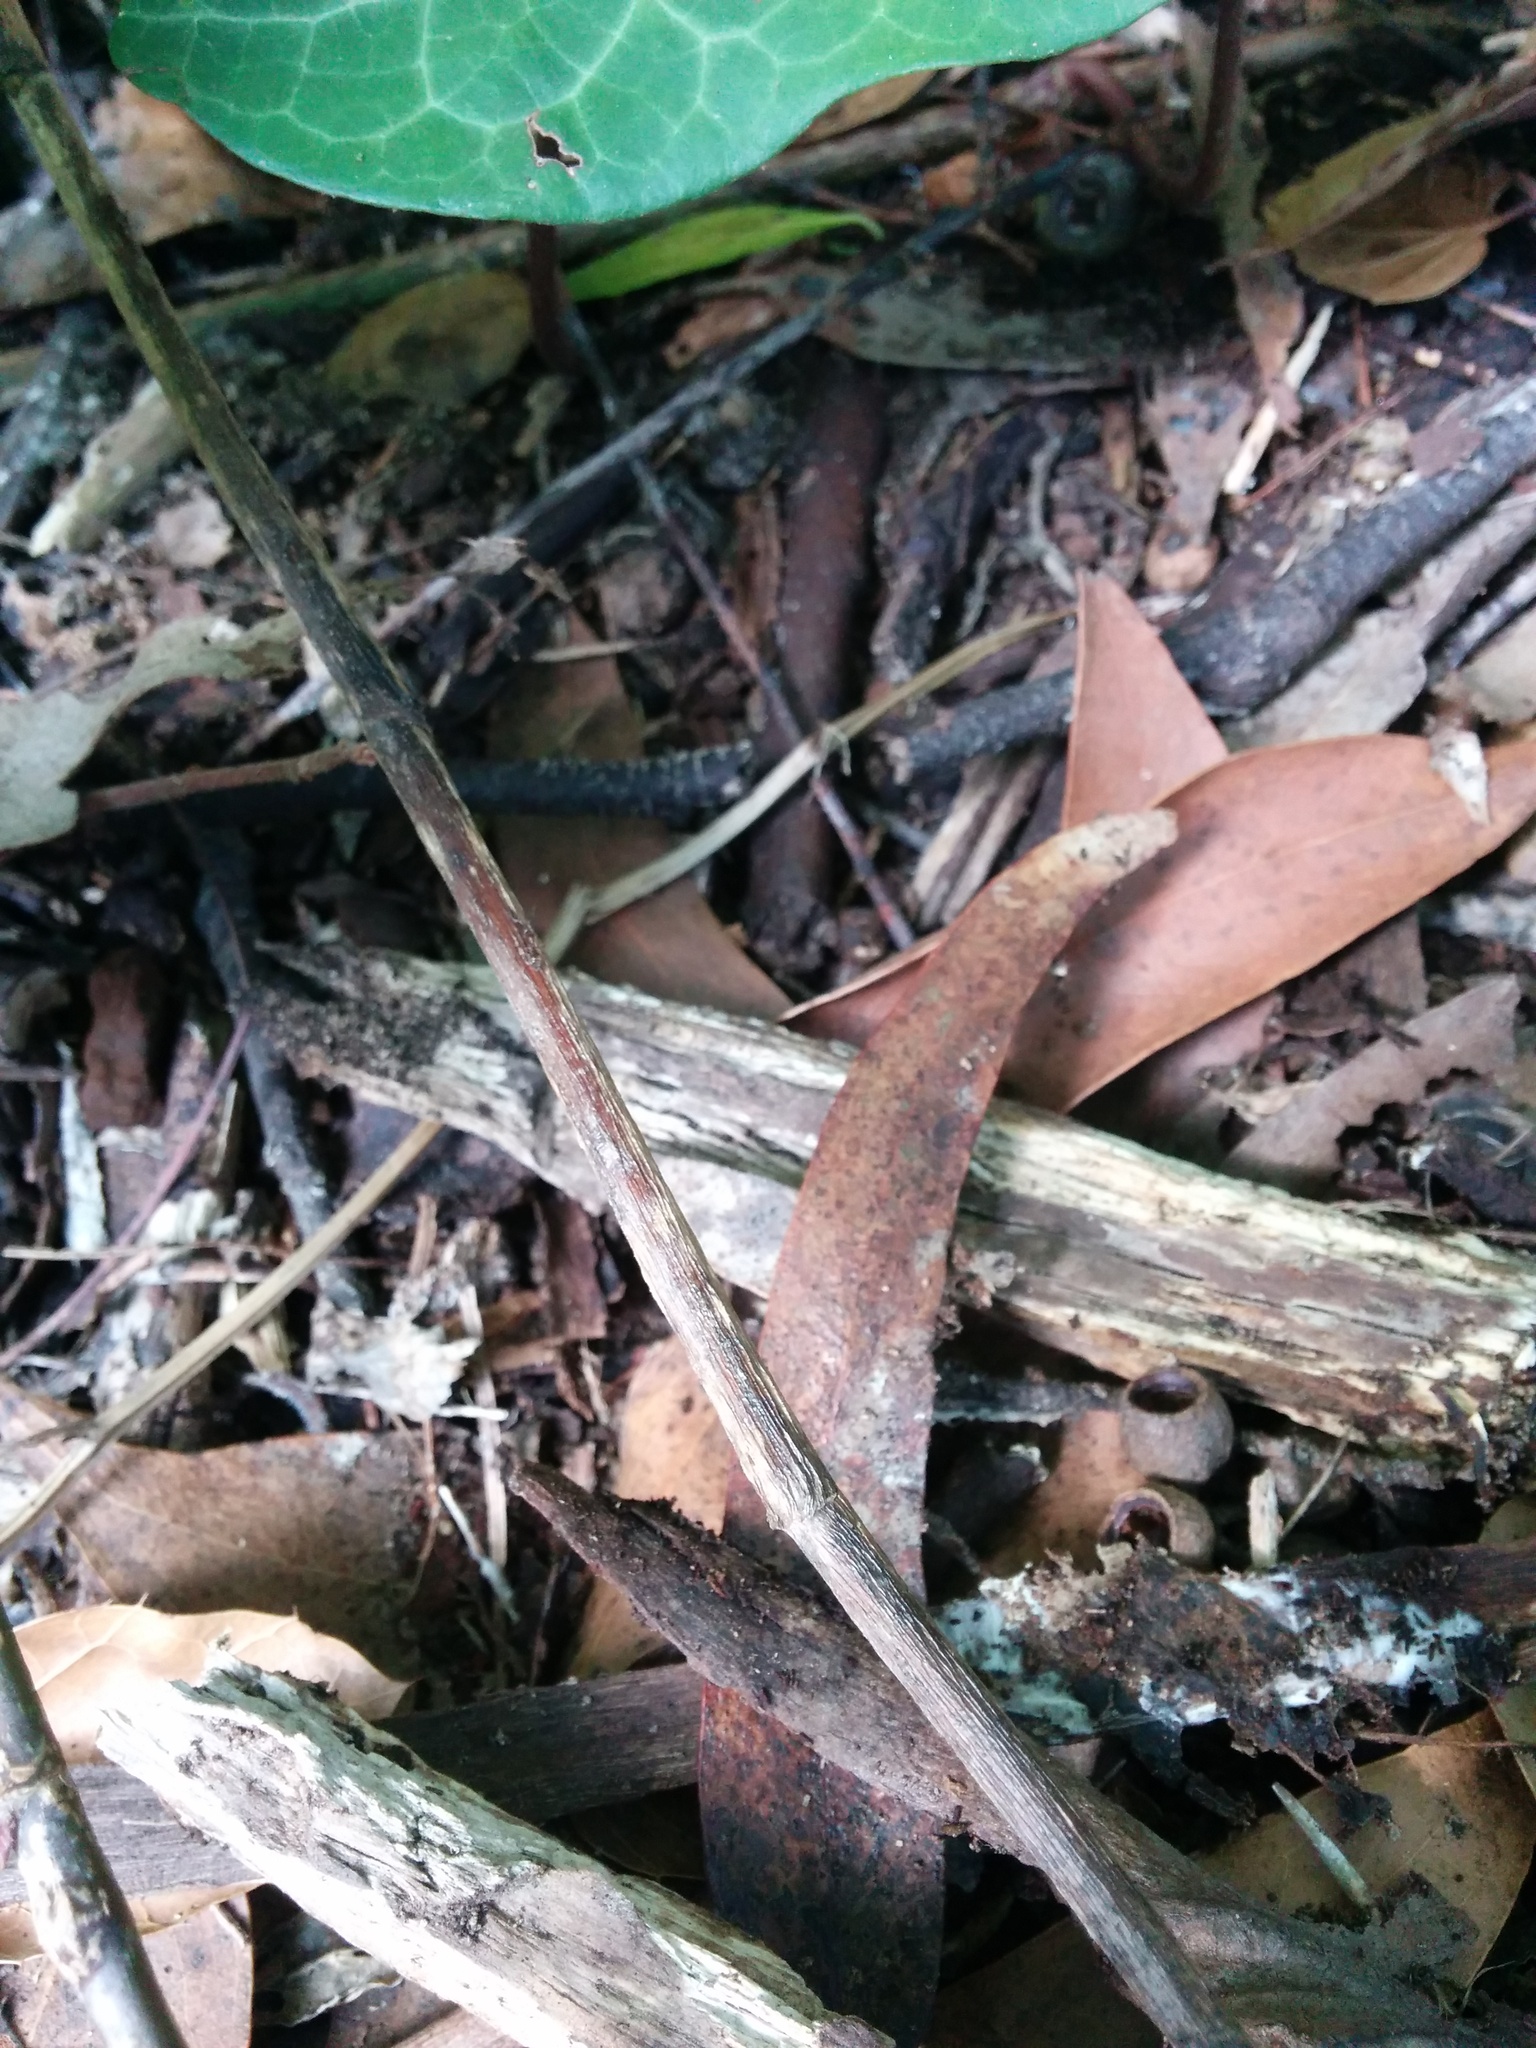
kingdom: Animalia
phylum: Arthropoda
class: Insecta
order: Hymenoptera
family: Formicidae
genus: Linepithema
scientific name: Linepithema humile
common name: Argentine ant
